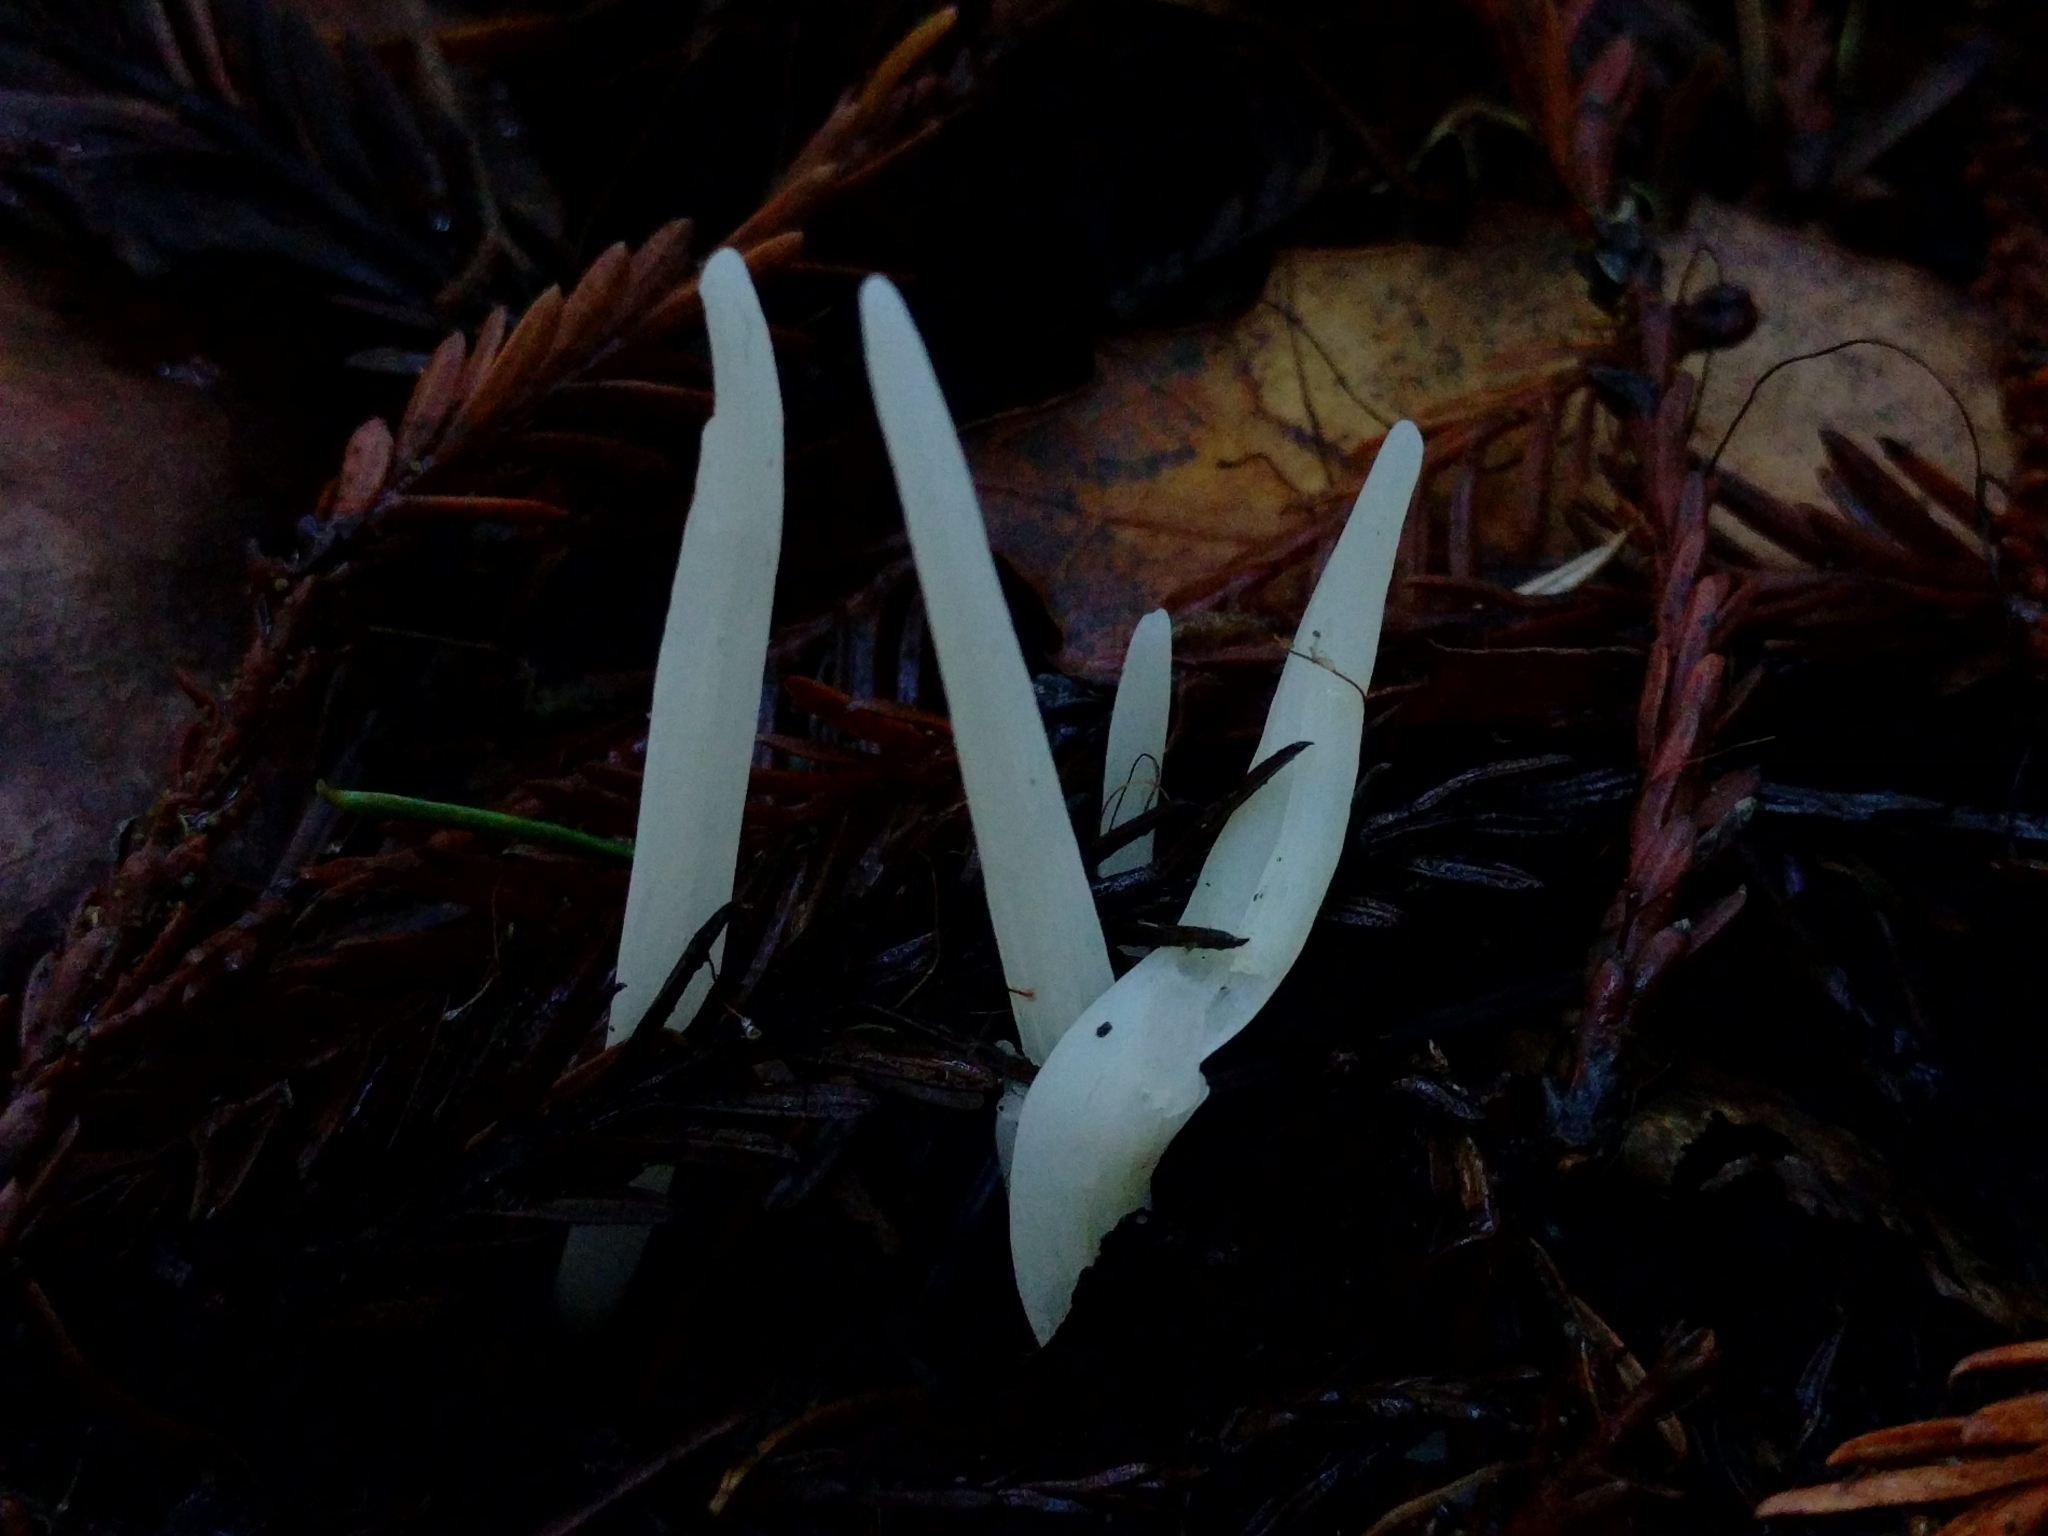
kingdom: Fungi
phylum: Basidiomycota
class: Agaricomycetes
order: Agaricales
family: Clavariaceae
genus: Clavaria
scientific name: Clavaria fragilis
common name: White spindles
